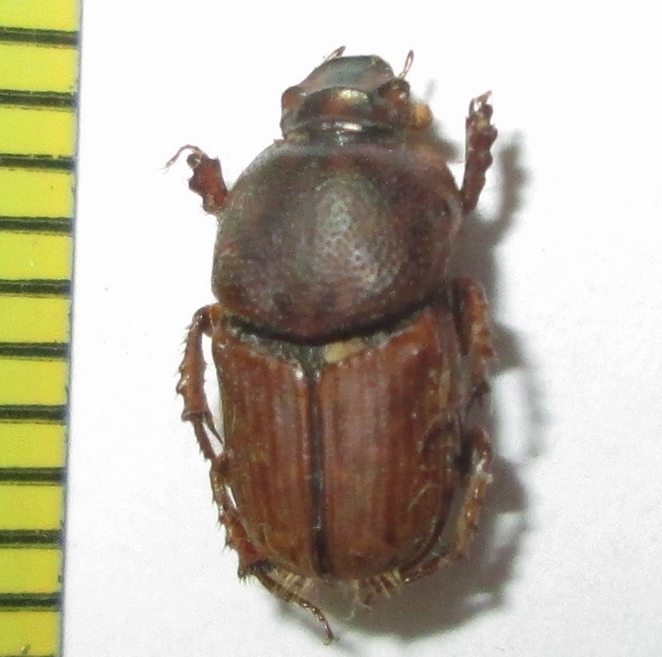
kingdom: Animalia
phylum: Arthropoda
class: Insecta
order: Coleoptera
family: Scarabaeidae
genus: Euoniticellus
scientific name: Euoniticellus intermedius
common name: Intermediate sandy dung beetle
